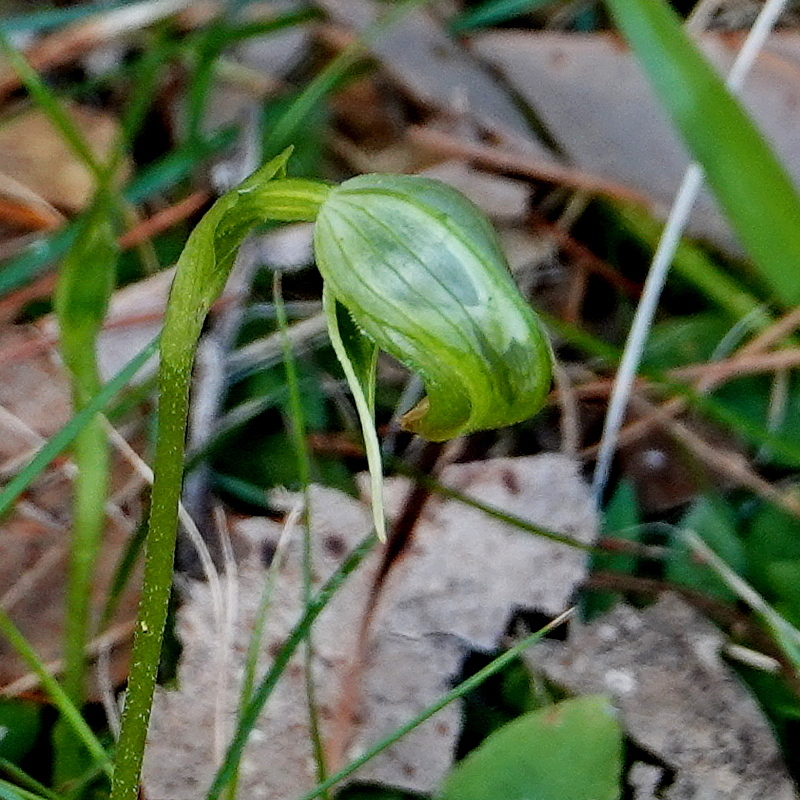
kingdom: Plantae
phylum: Tracheophyta
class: Liliopsida
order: Asparagales
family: Orchidaceae
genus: Pterostylis
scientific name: Pterostylis nutans
